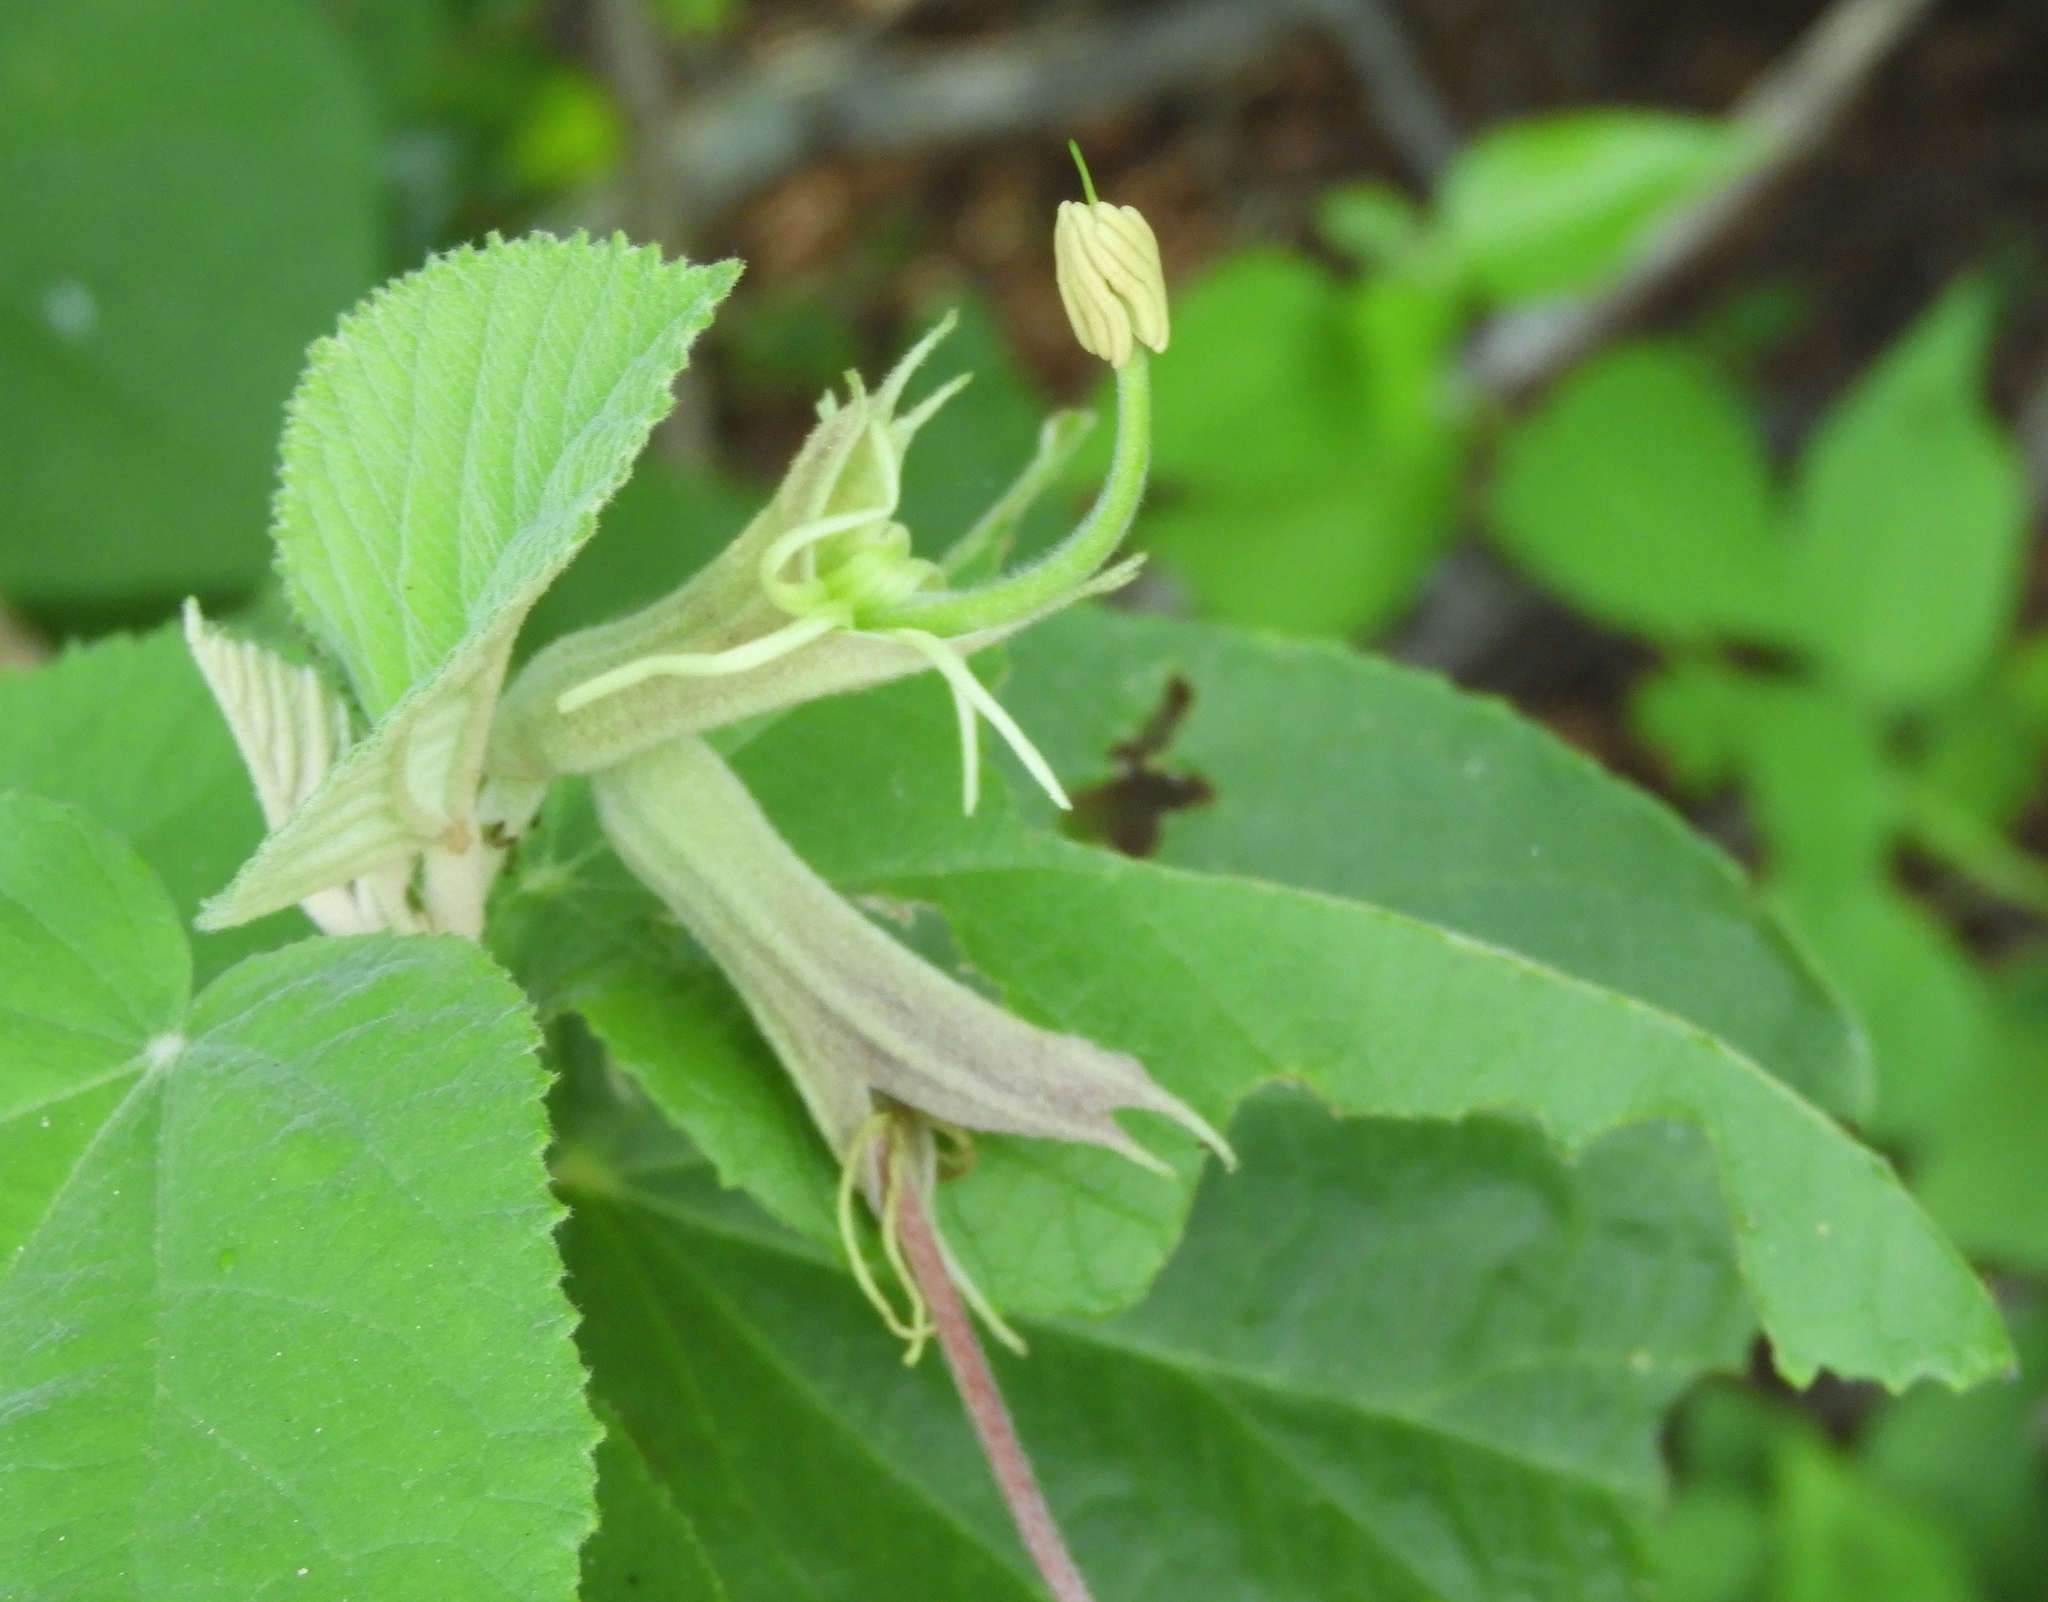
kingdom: Plantae
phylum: Tracheophyta
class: Magnoliopsida
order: Malvales
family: Malvaceae
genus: Helicteres
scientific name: Helicteres baruensis
